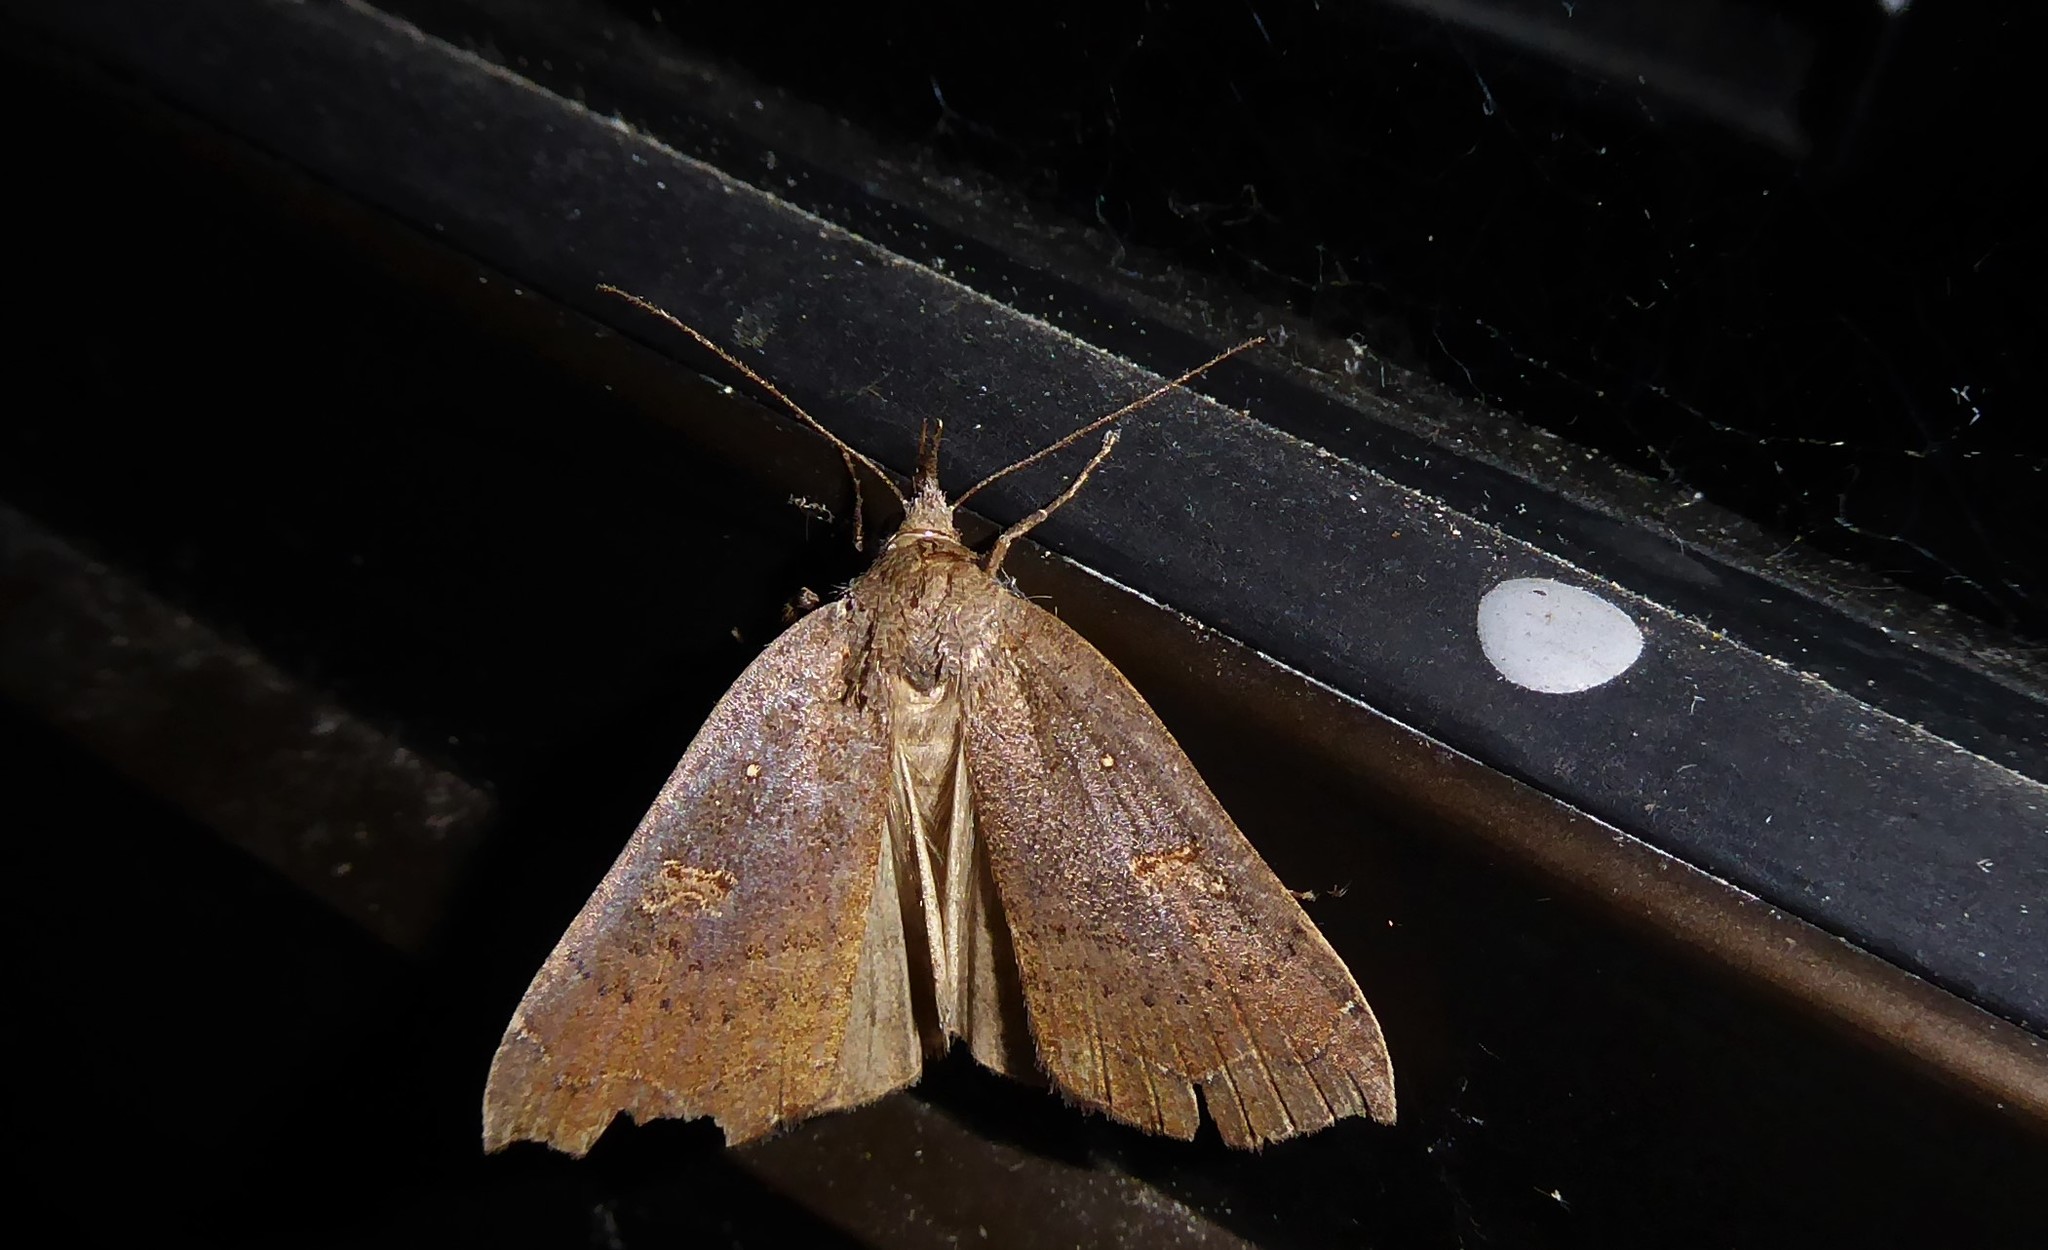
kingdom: Animalia
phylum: Arthropoda
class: Insecta
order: Lepidoptera
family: Erebidae
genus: Rhapsa
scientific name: Rhapsa scotosialis
